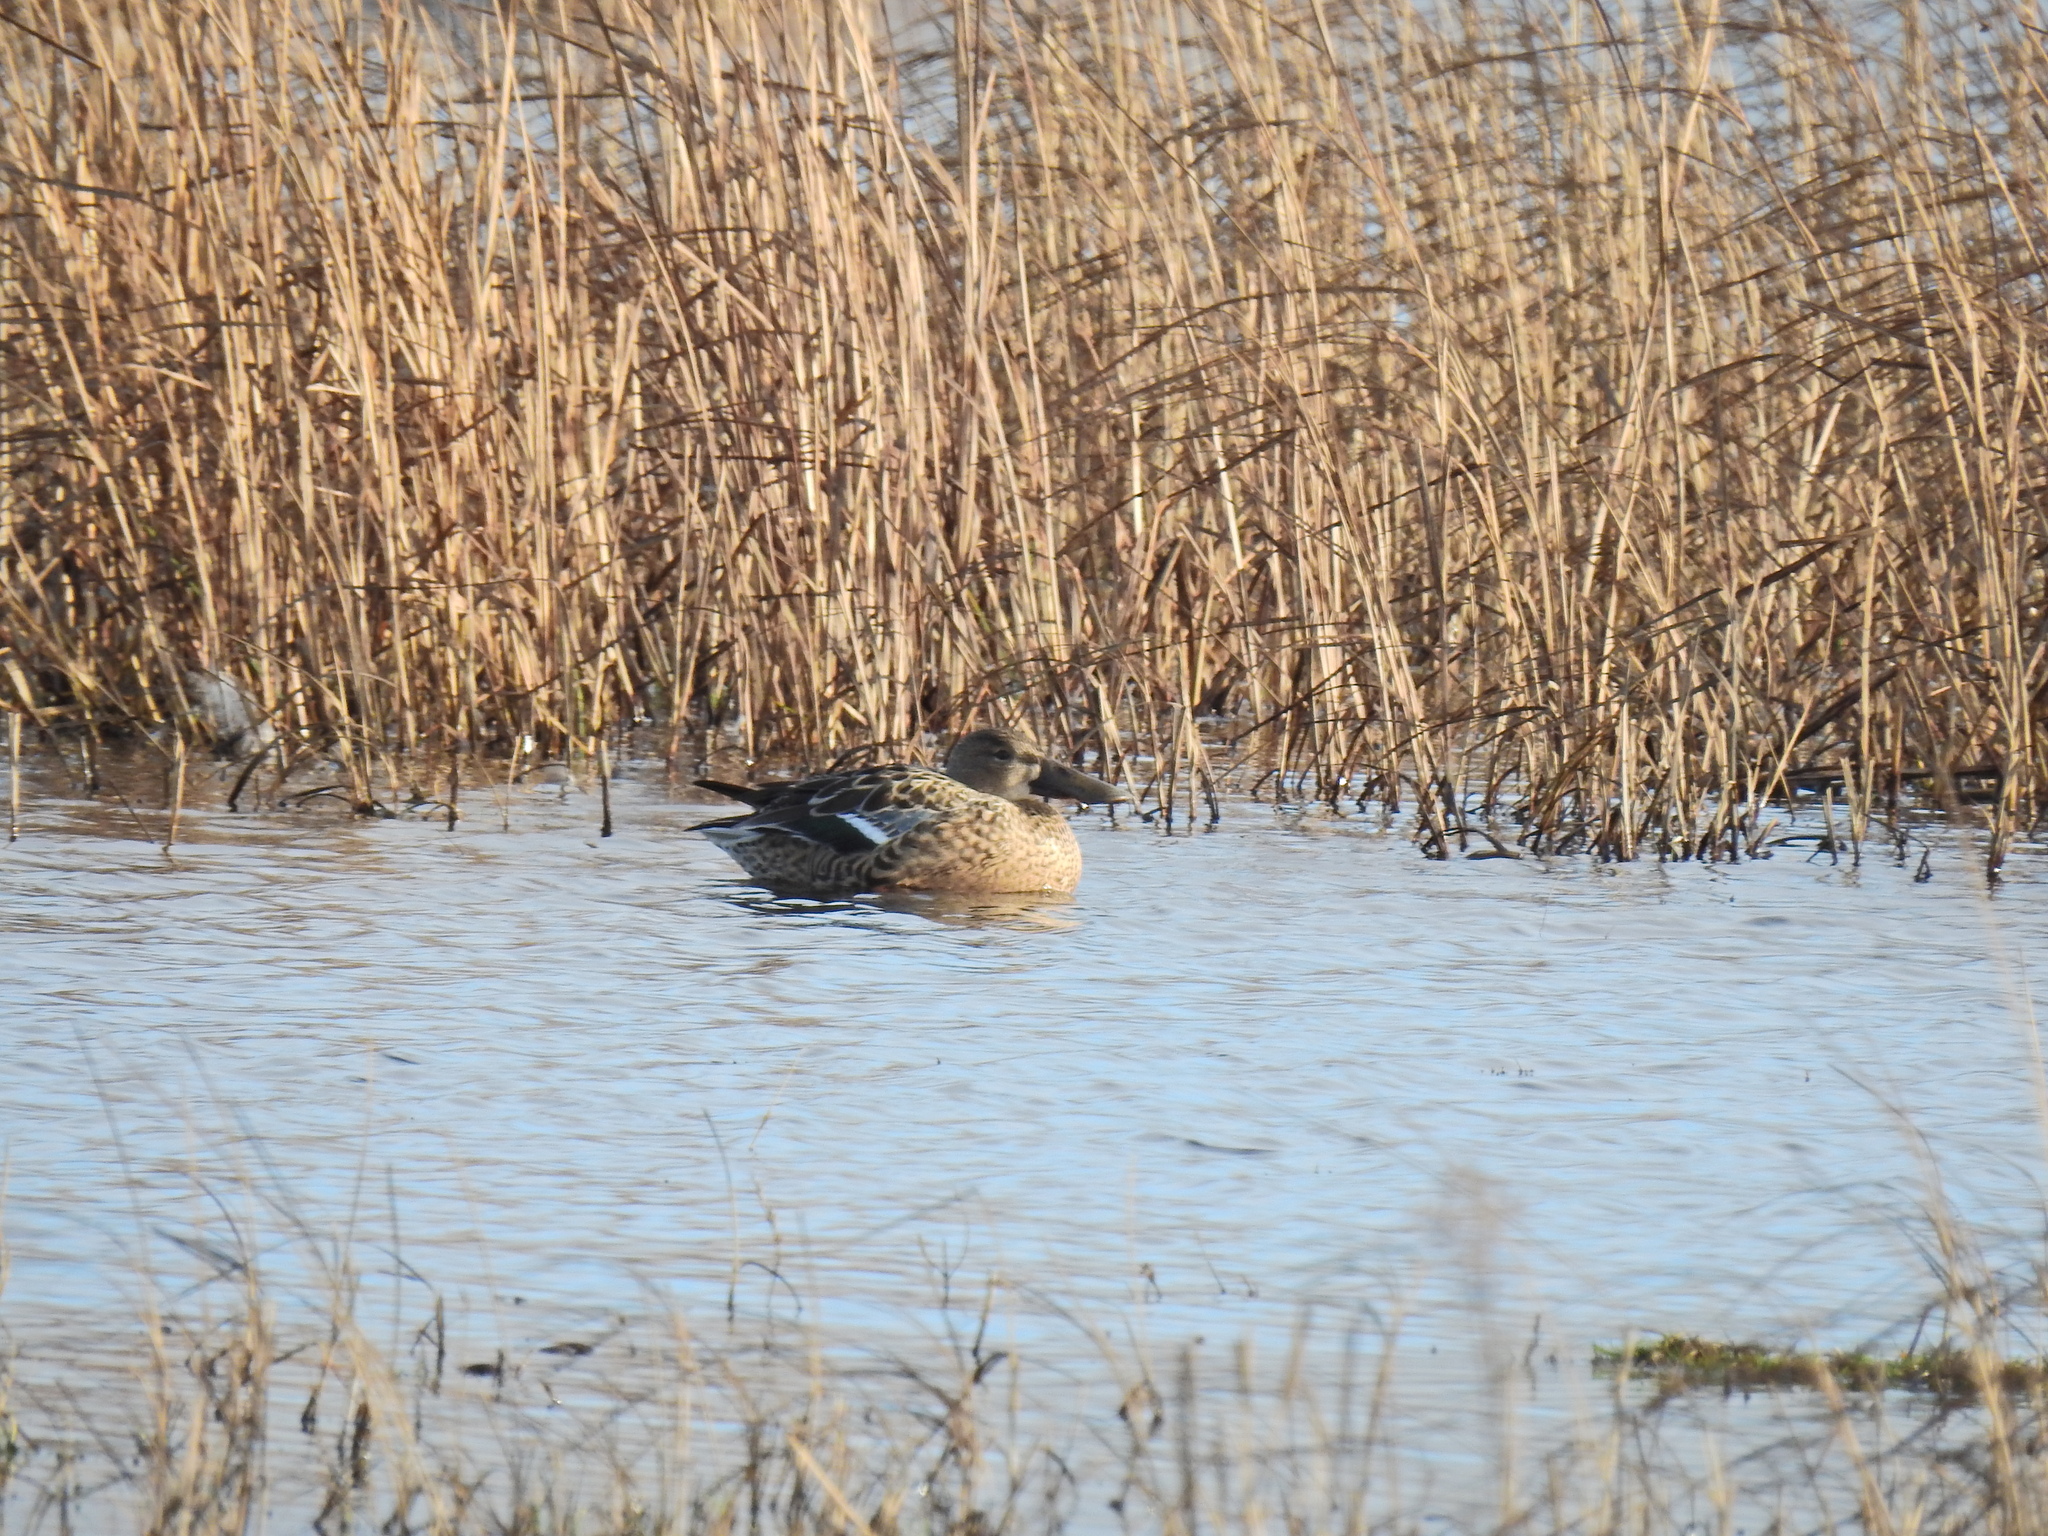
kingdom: Animalia
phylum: Chordata
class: Aves
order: Anseriformes
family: Anatidae
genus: Spatula
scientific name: Spatula clypeata
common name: Northern shoveler
